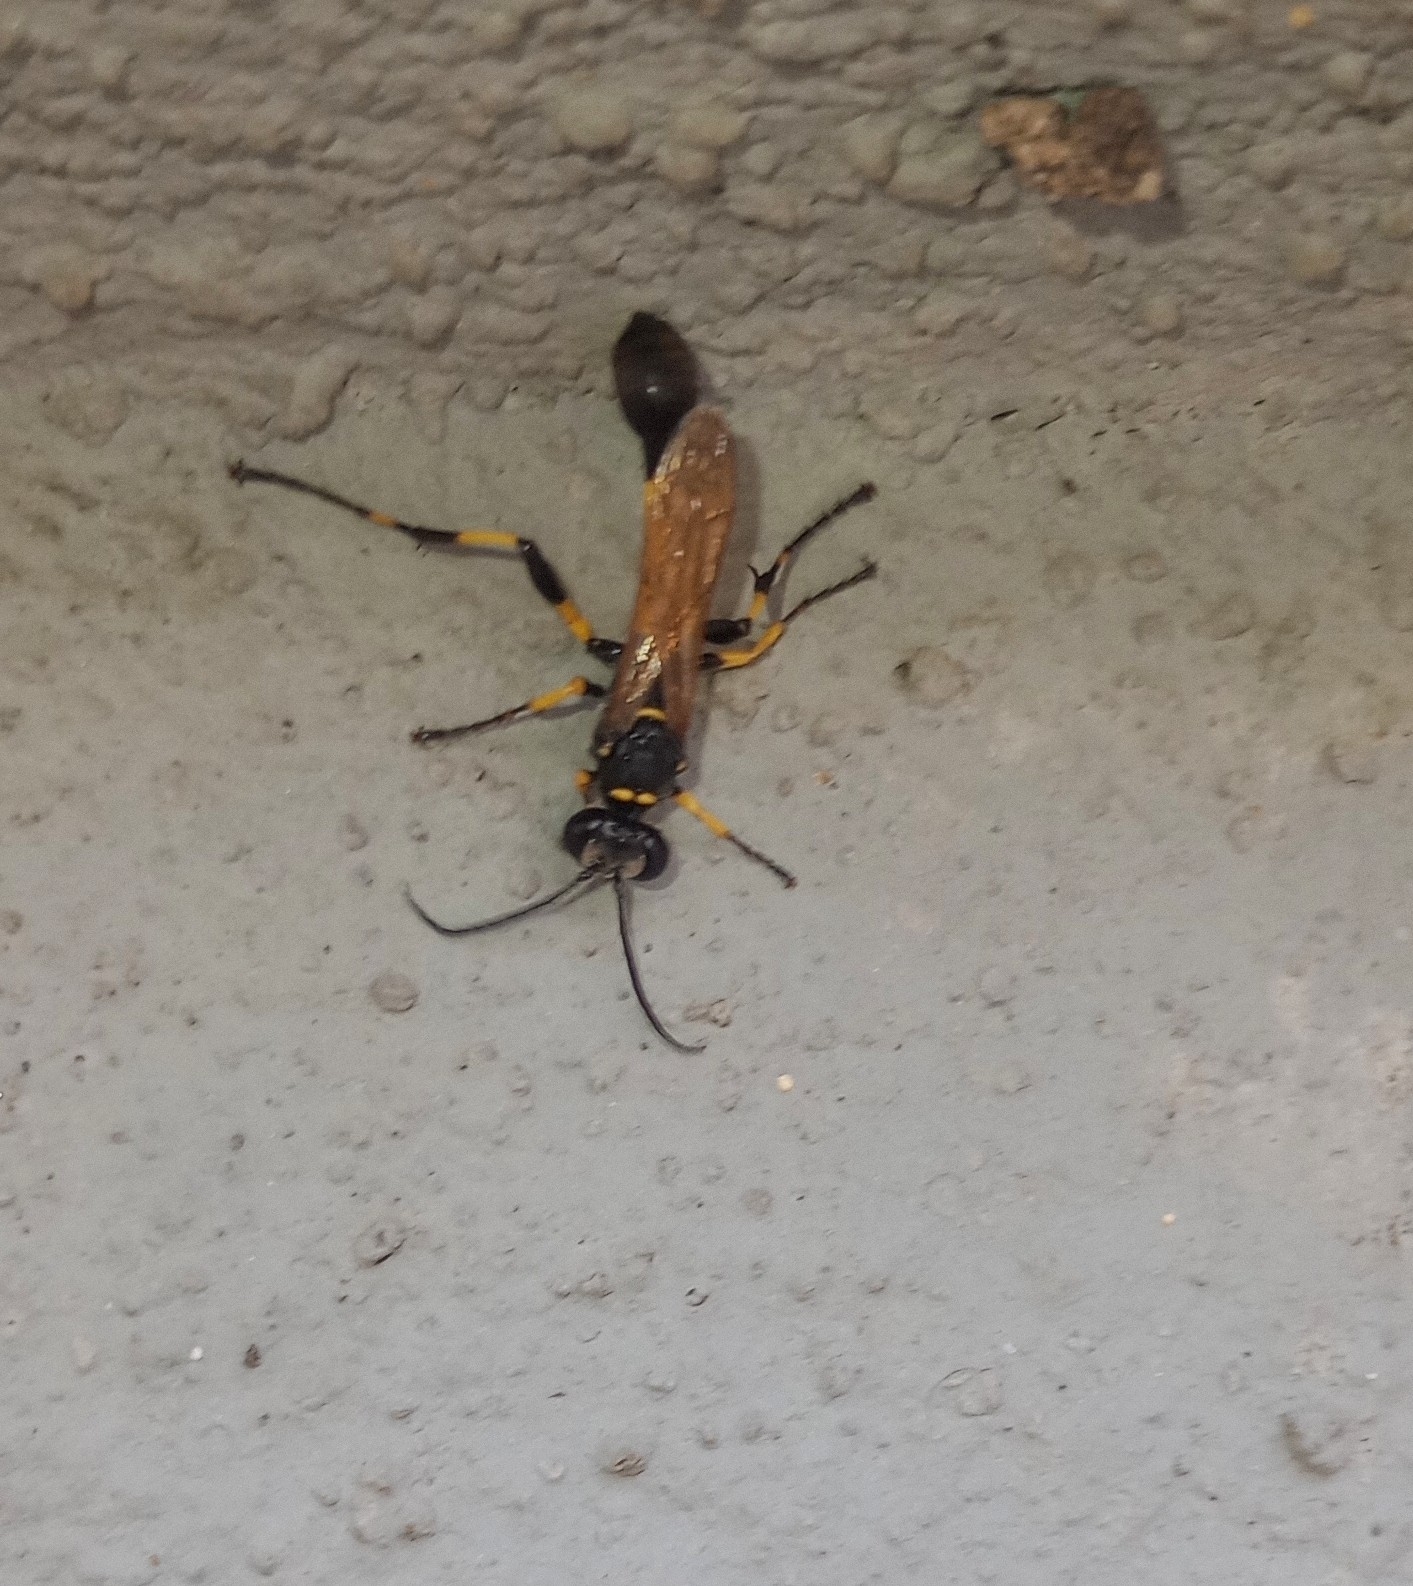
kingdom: Animalia
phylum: Arthropoda
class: Insecta
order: Hymenoptera
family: Sphecidae
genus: Sceliphron
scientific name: Sceliphron madraspatanum
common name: Mud dauber
